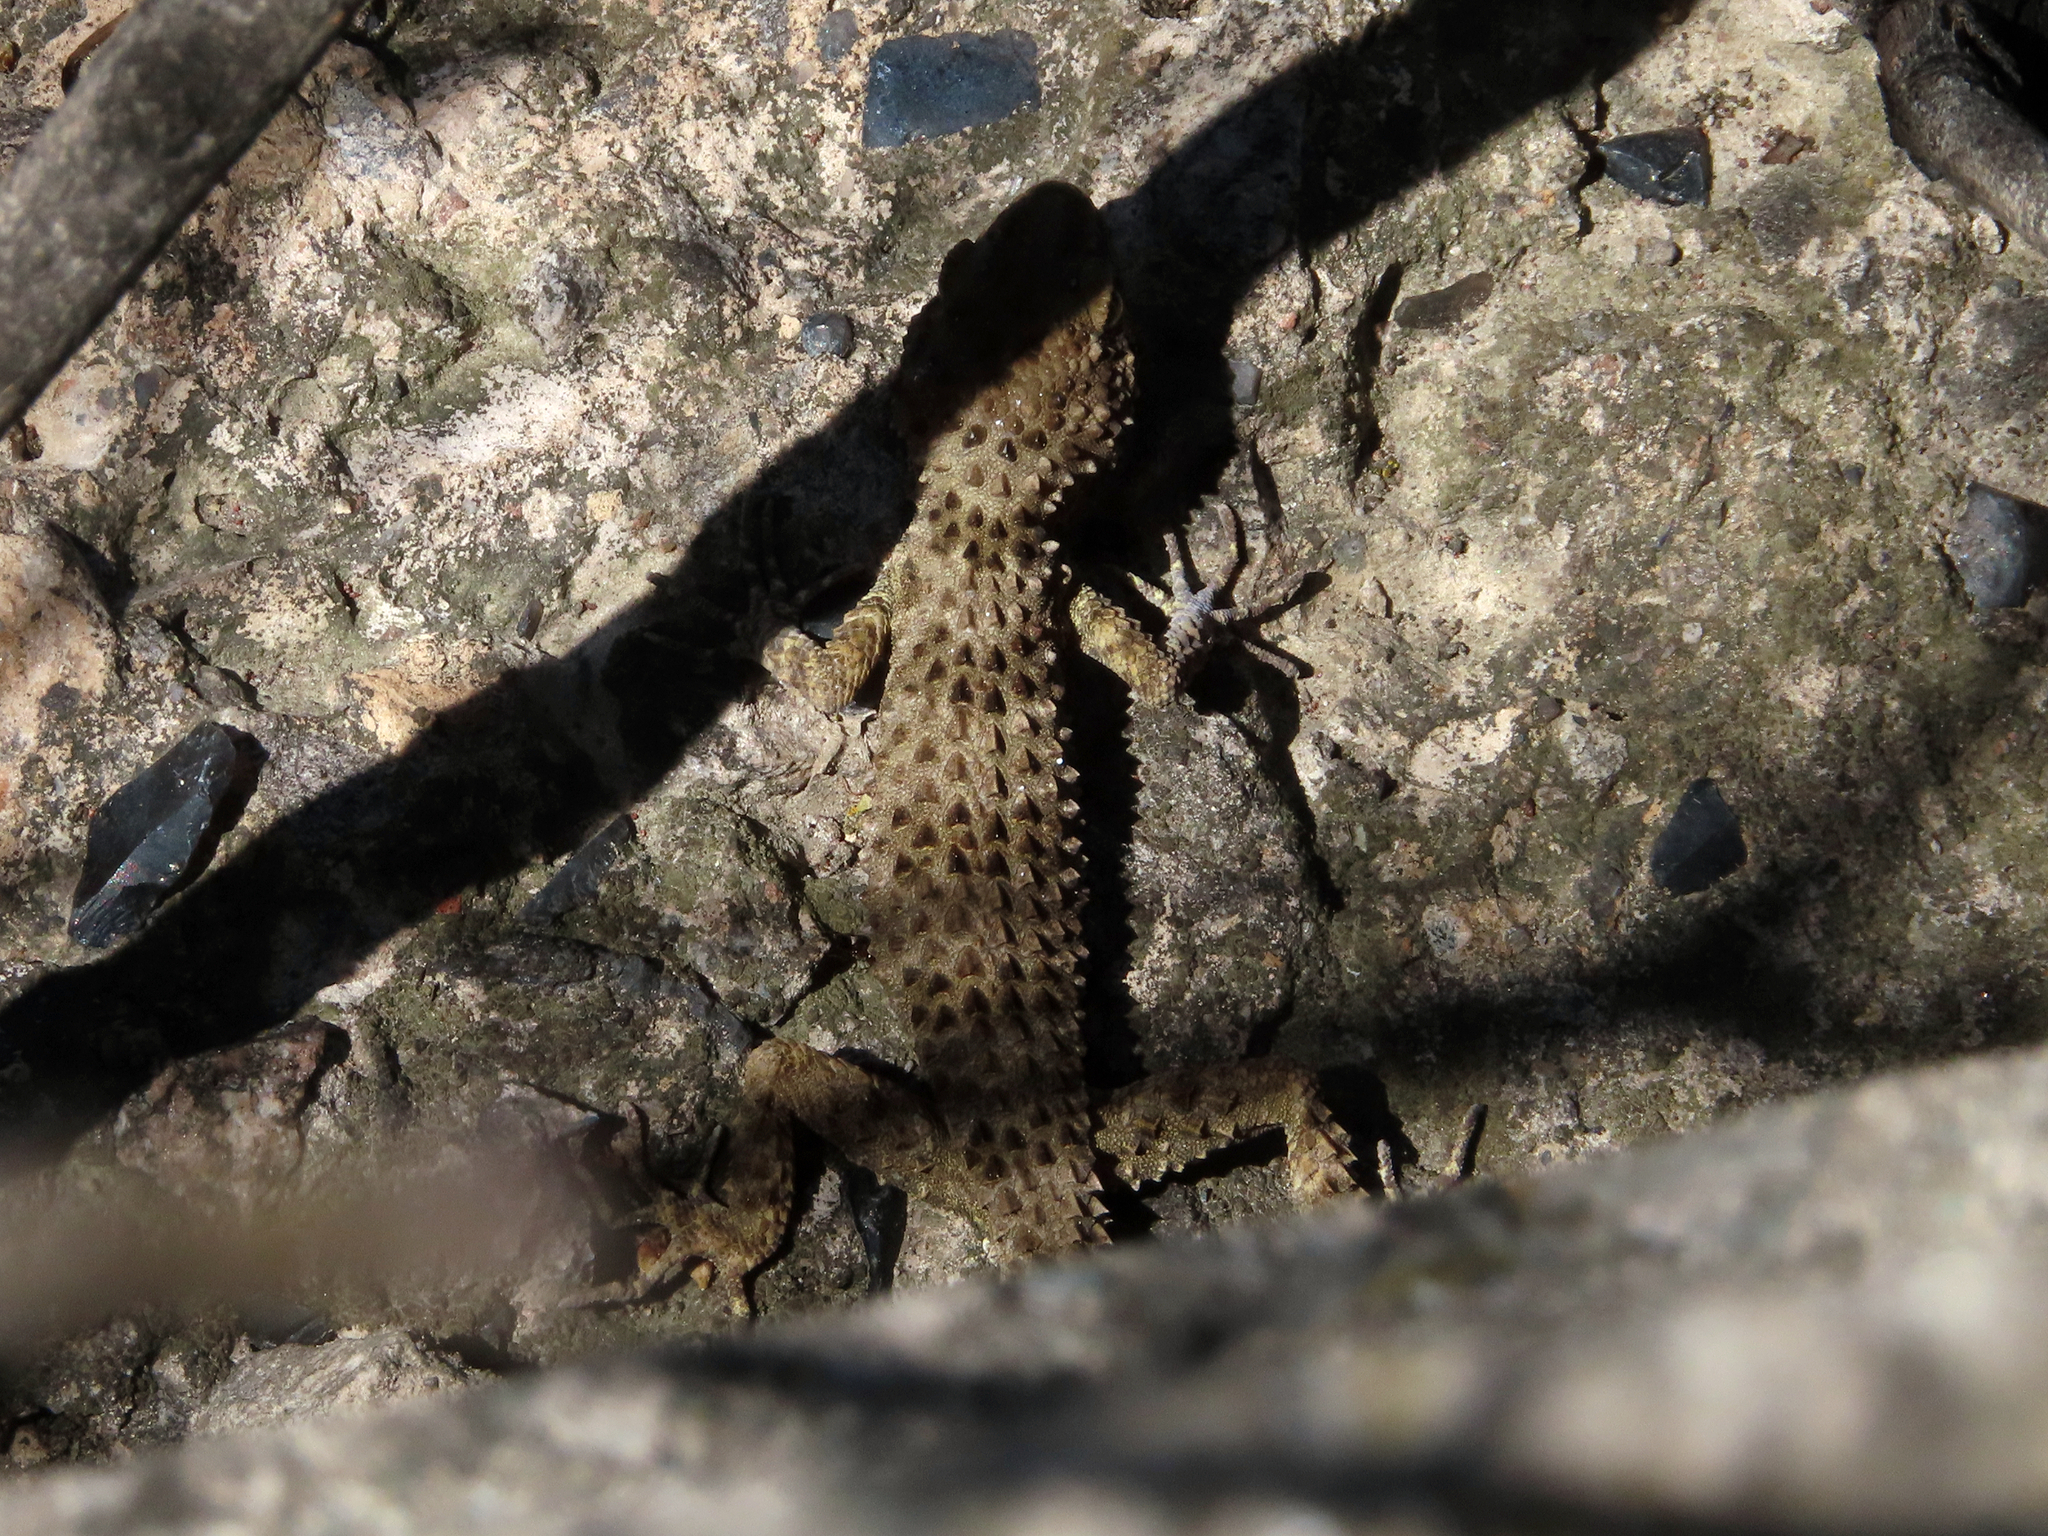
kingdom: Animalia
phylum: Chordata
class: Squamata
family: Gekkonidae
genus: Tenuidactylus
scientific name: Tenuidactylus caspius
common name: Caspian bent-toed gecko
